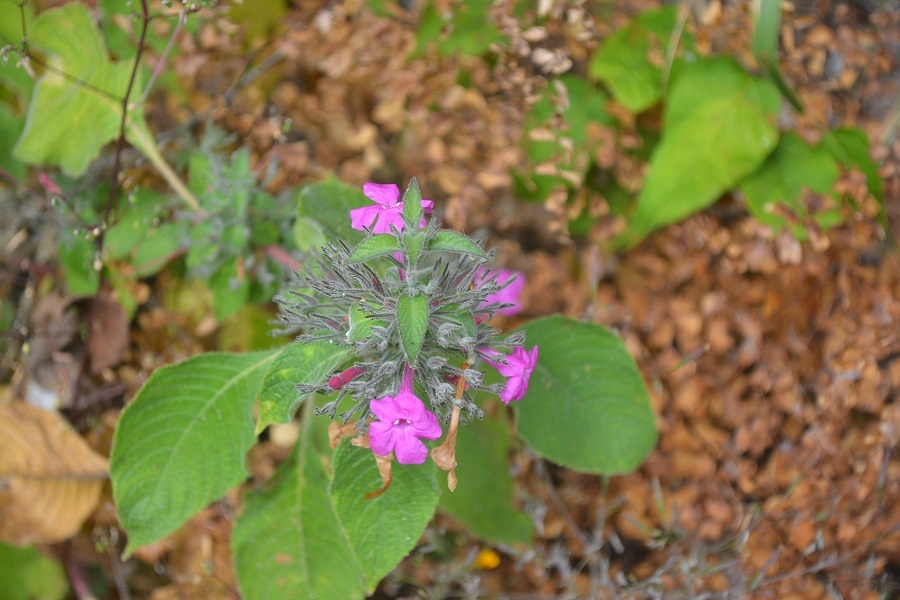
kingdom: Plantae
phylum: Tracheophyta
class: Magnoliopsida
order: Lamiales
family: Acanthaceae
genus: Ruellia
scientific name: Ruellia inundata
